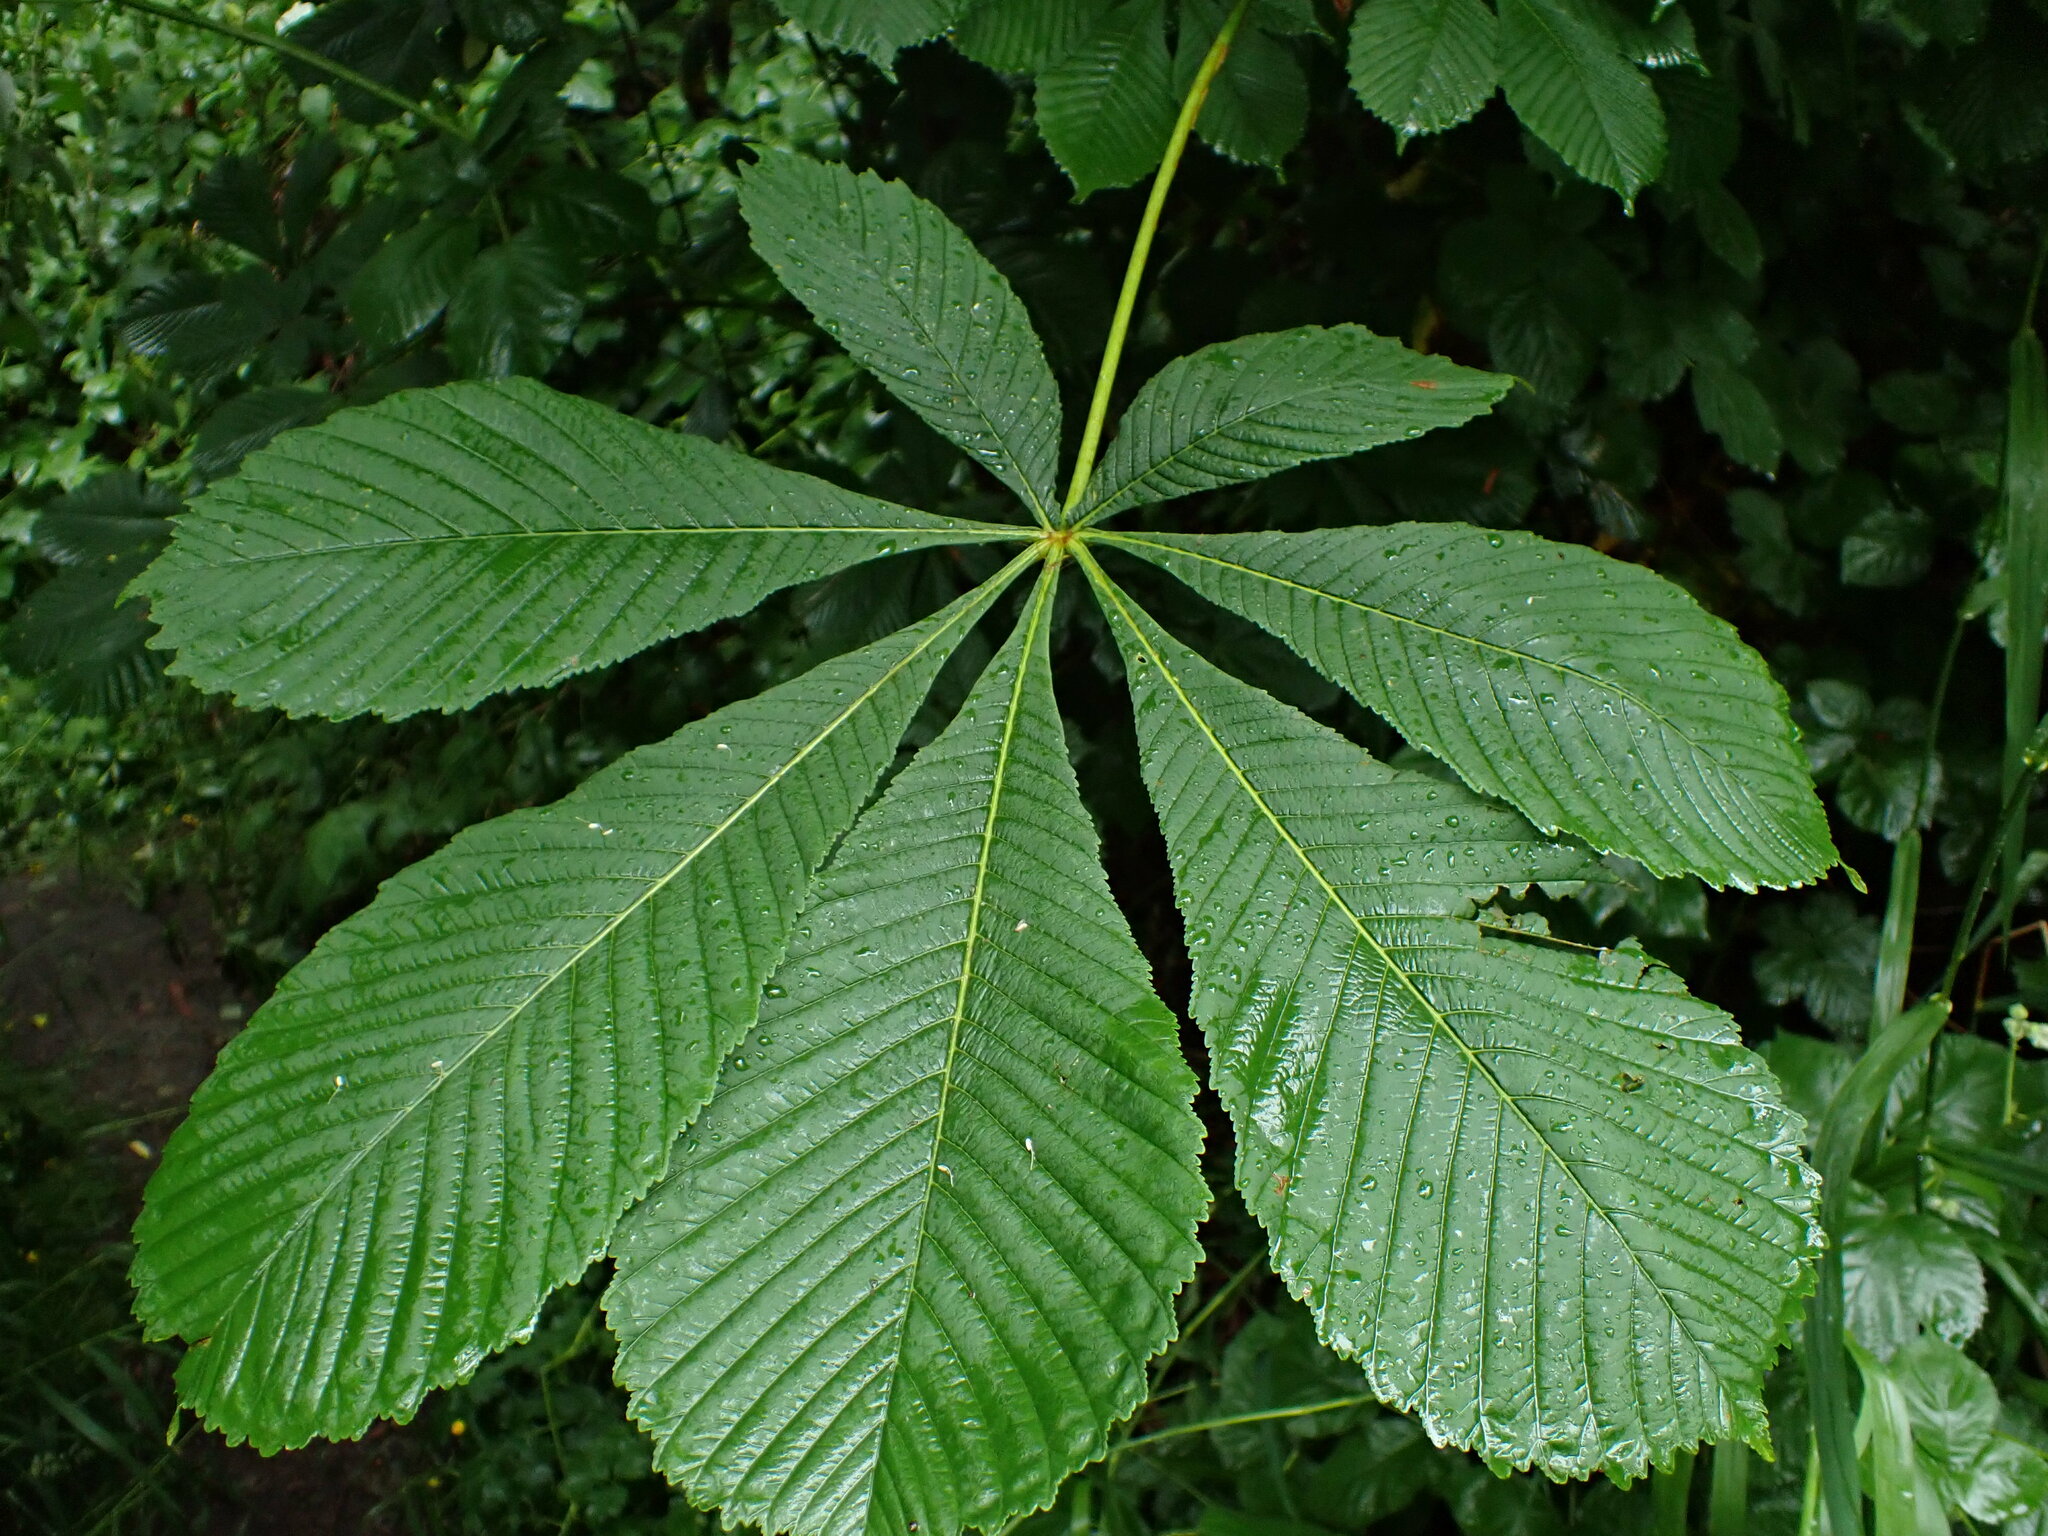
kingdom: Plantae
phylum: Tracheophyta
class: Magnoliopsida
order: Sapindales
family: Sapindaceae
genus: Aesculus
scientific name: Aesculus hippocastanum
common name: Horse-chestnut
